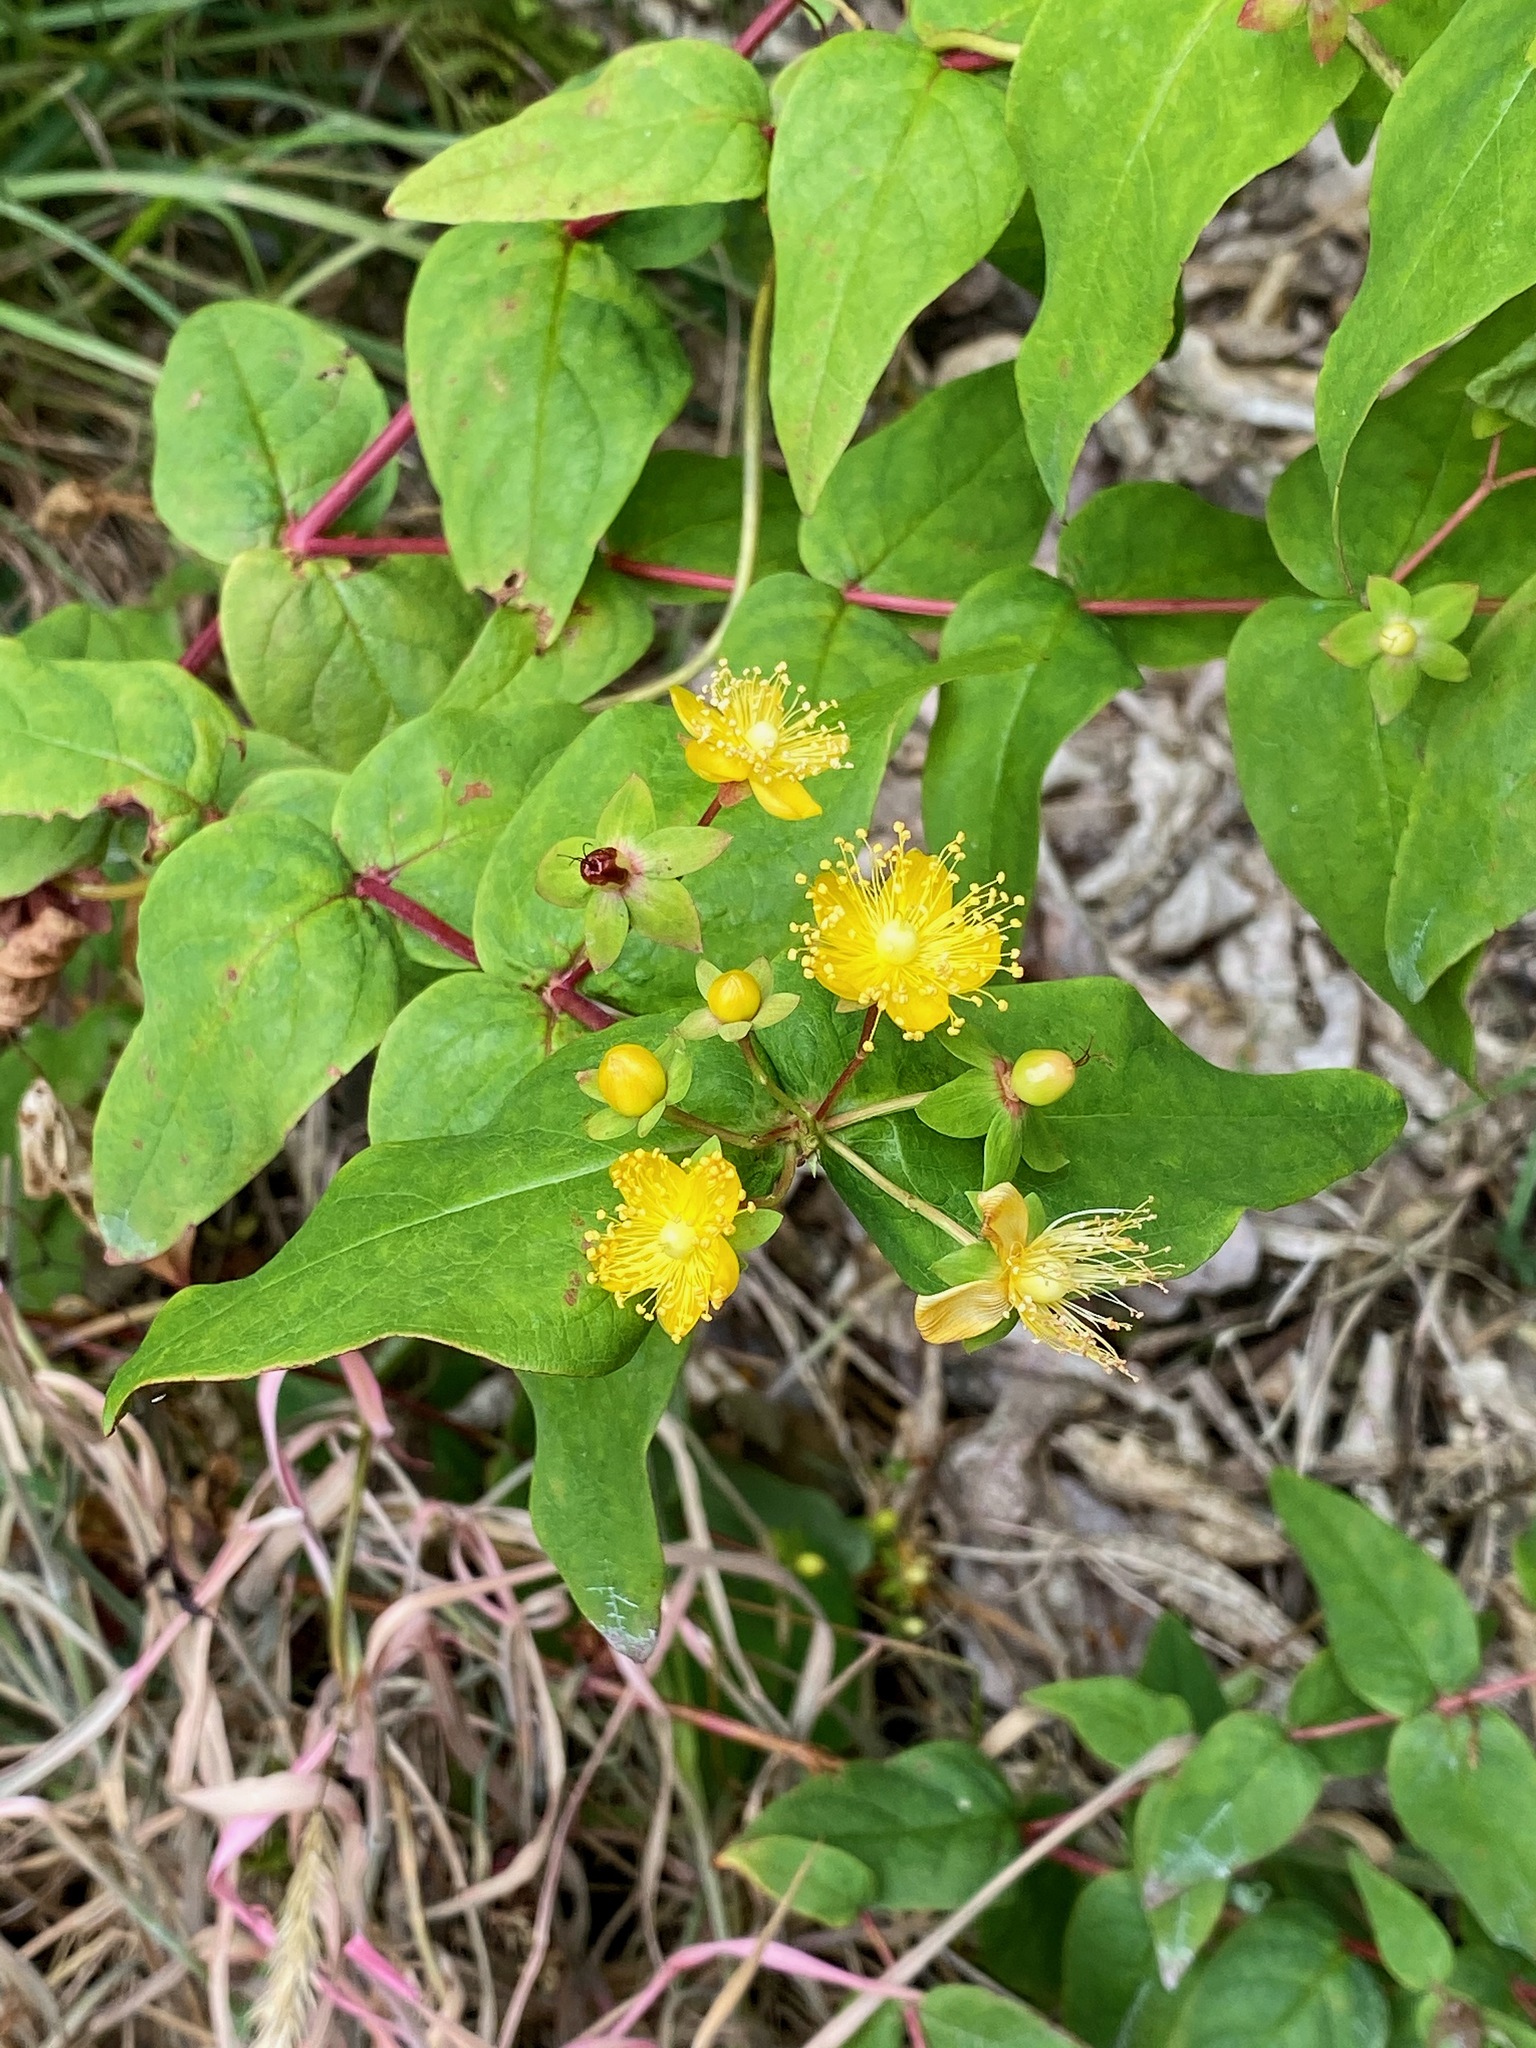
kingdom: Plantae
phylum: Tracheophyta
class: Magnoliopsida
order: Malpighiales
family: Hypericaceae
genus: Hypericum
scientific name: Hypericum androsaemum
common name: Sweet-amber
